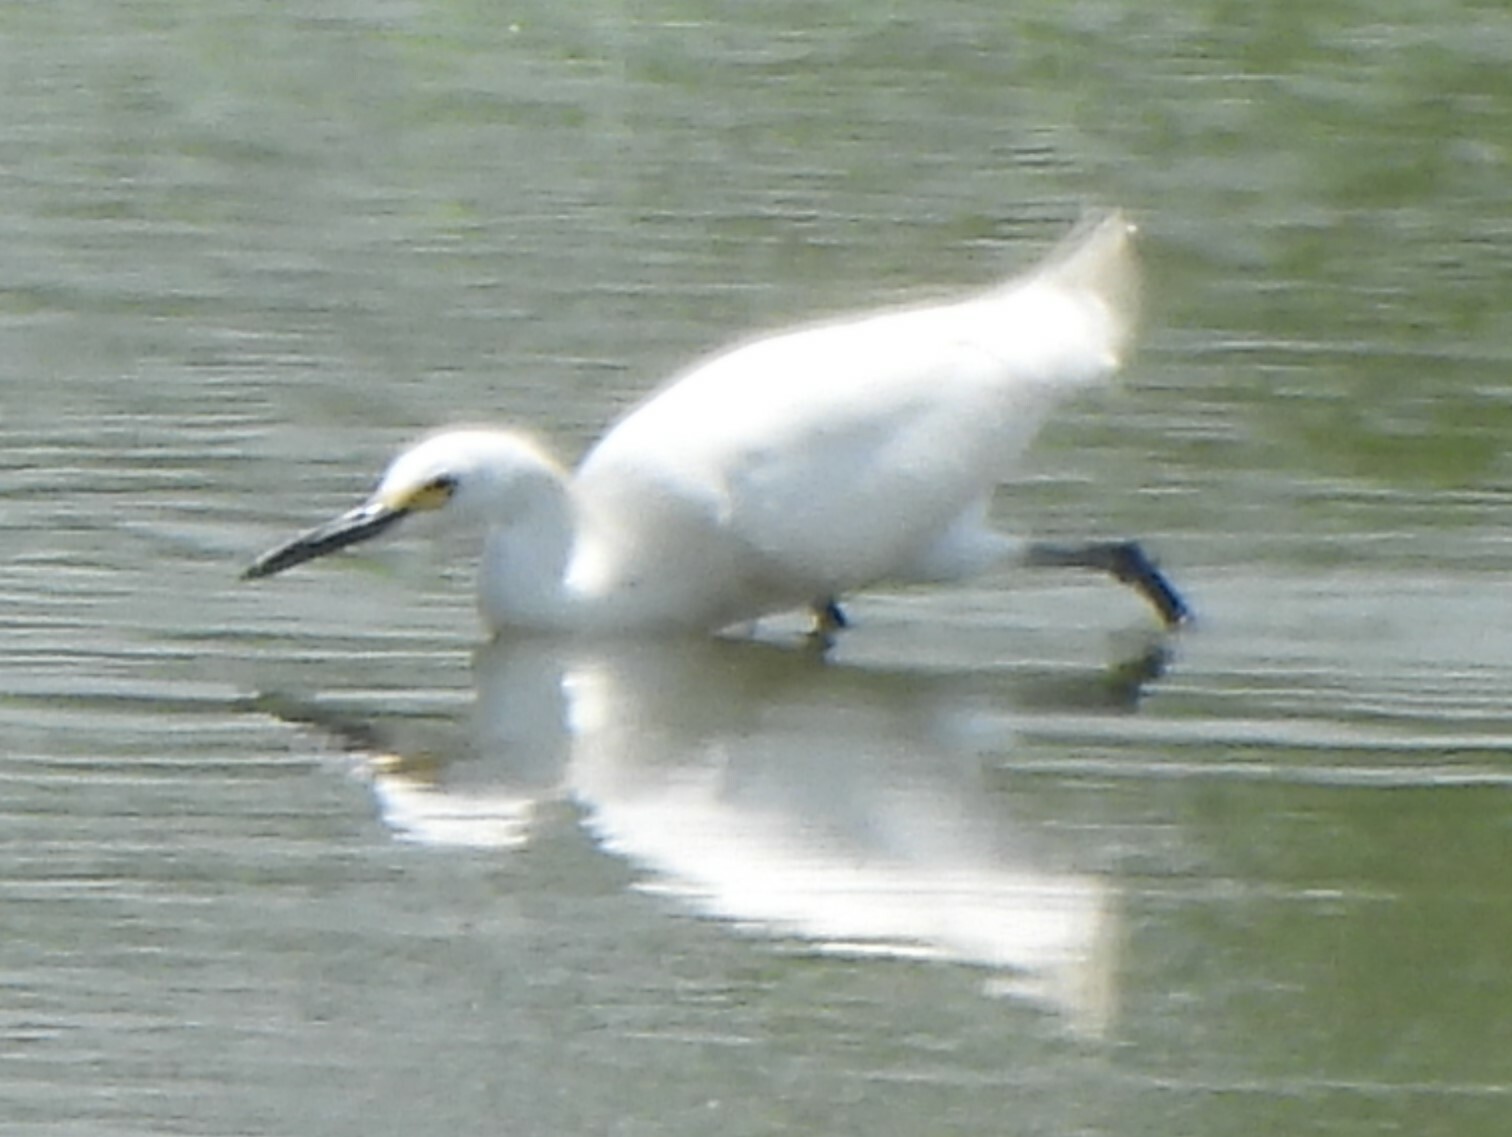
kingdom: Animalia
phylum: Chordata
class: Aves
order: Pelecaniformes
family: Ardeidae
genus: Egretta
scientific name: Egretta thula
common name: Snowy egret
